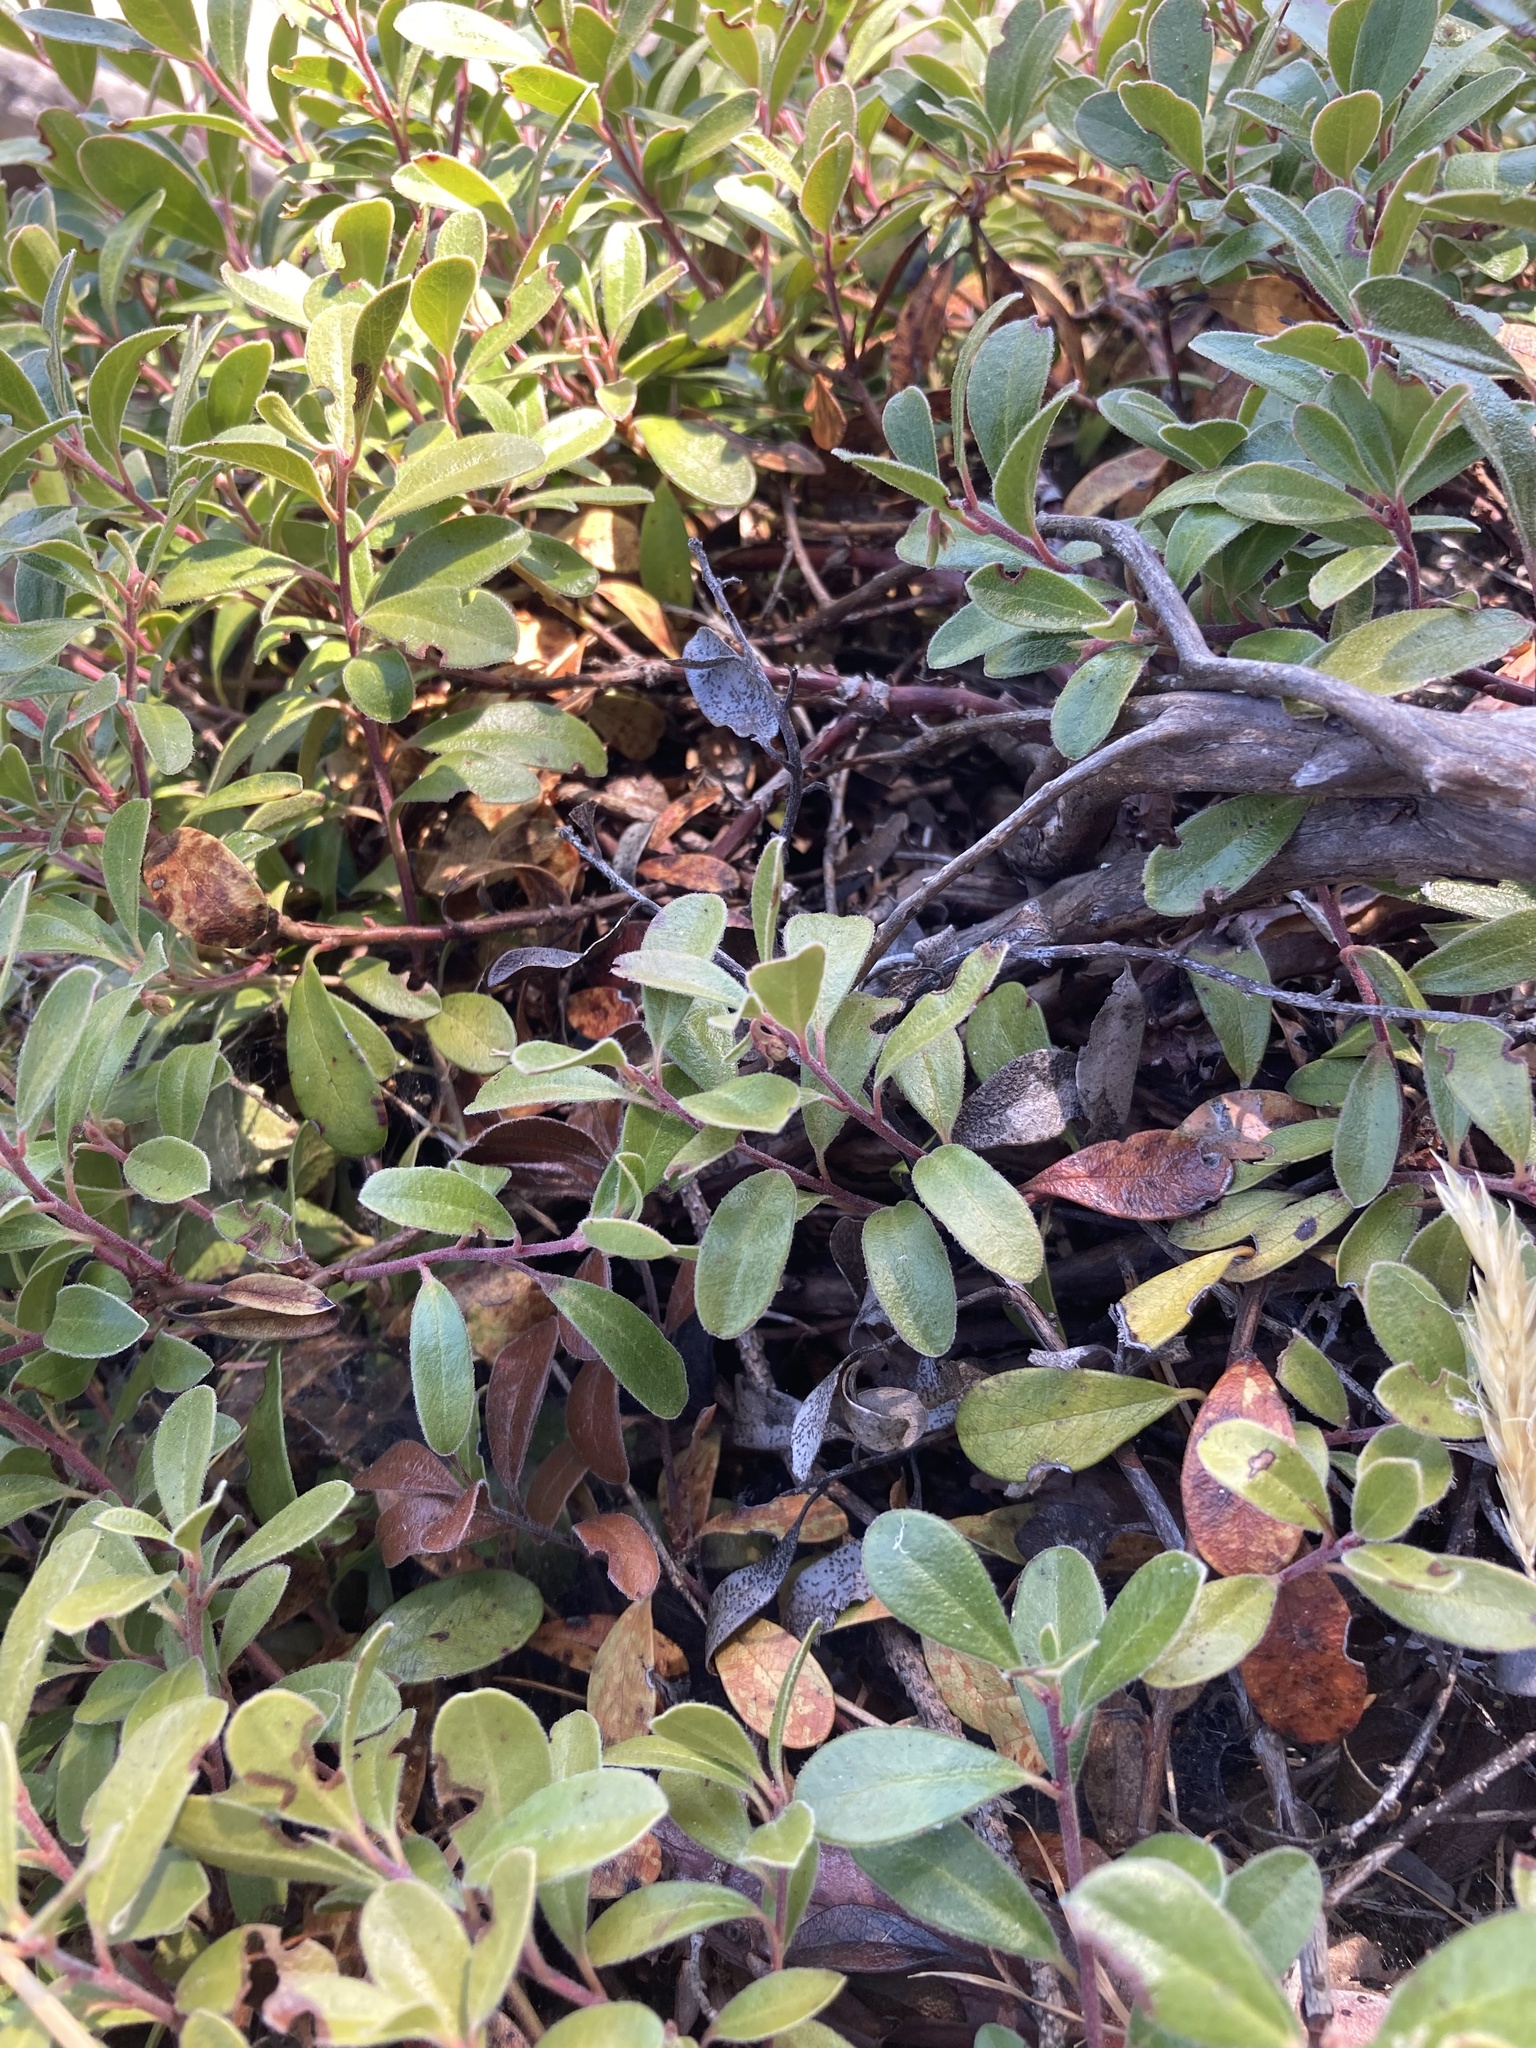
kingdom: Plantae
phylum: Tracheophyta
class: Magnoliopsida
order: Ericales
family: Ericaceae
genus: Arctostaphylos
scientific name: Arctostaphylos uva-ursi
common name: Bearberry
